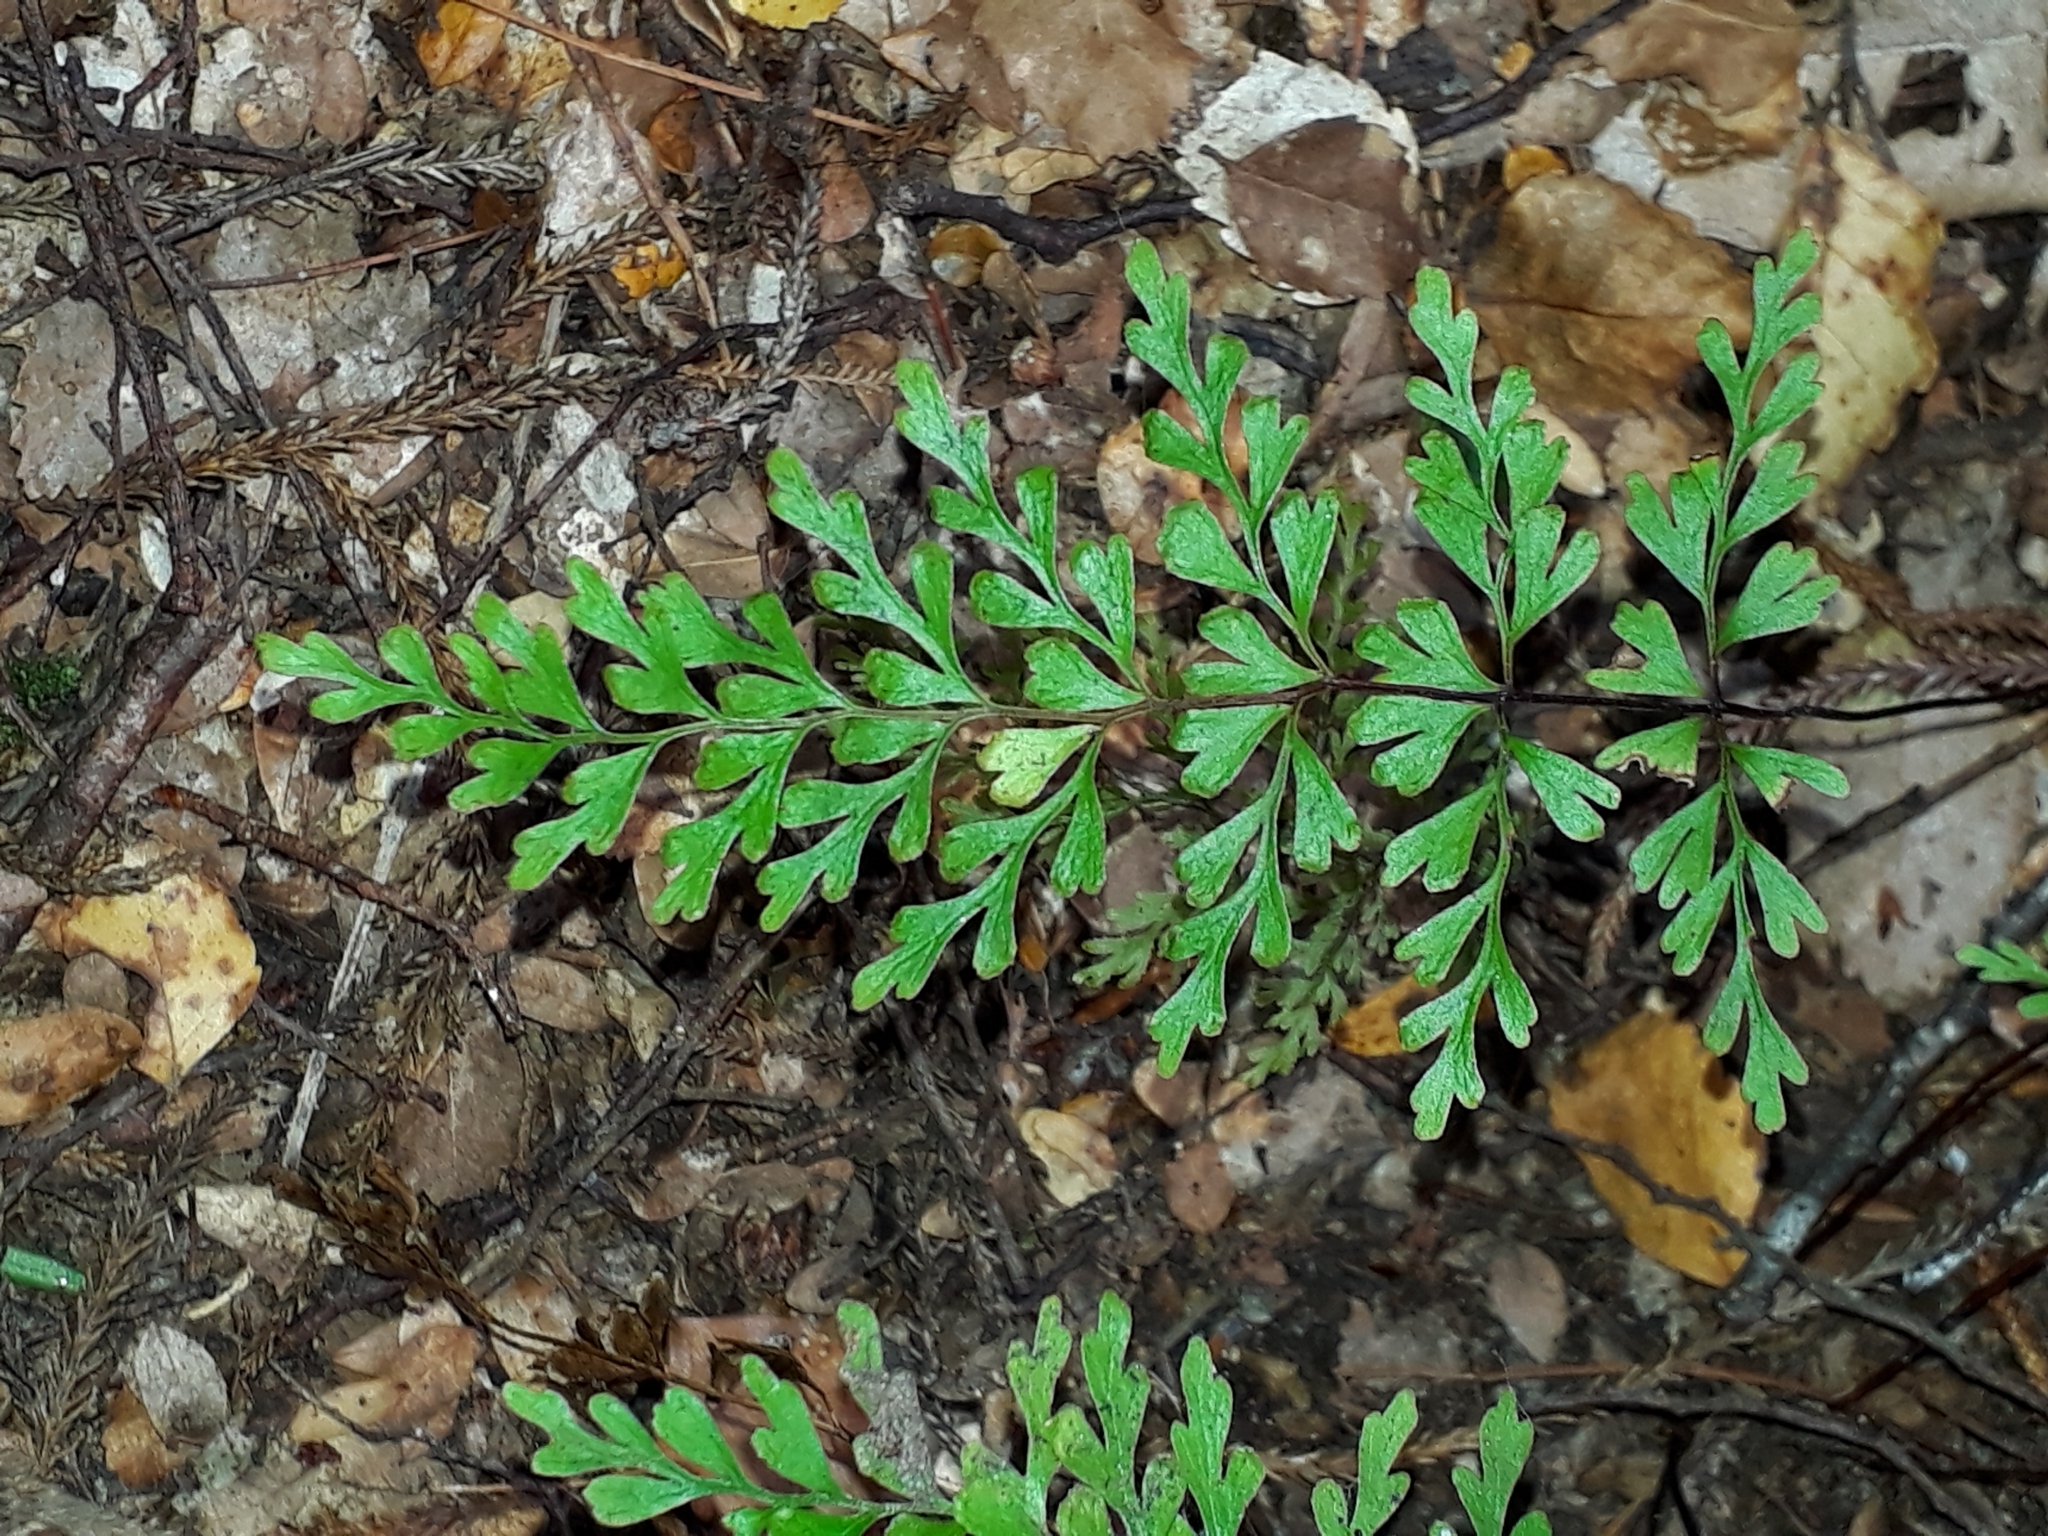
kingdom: Plantae
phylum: Tracheophyta
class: Polypodiopsida
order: Polypodiales
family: Lindsaeaceae
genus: Lindsaea
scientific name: Lindsaea trichomanoides
